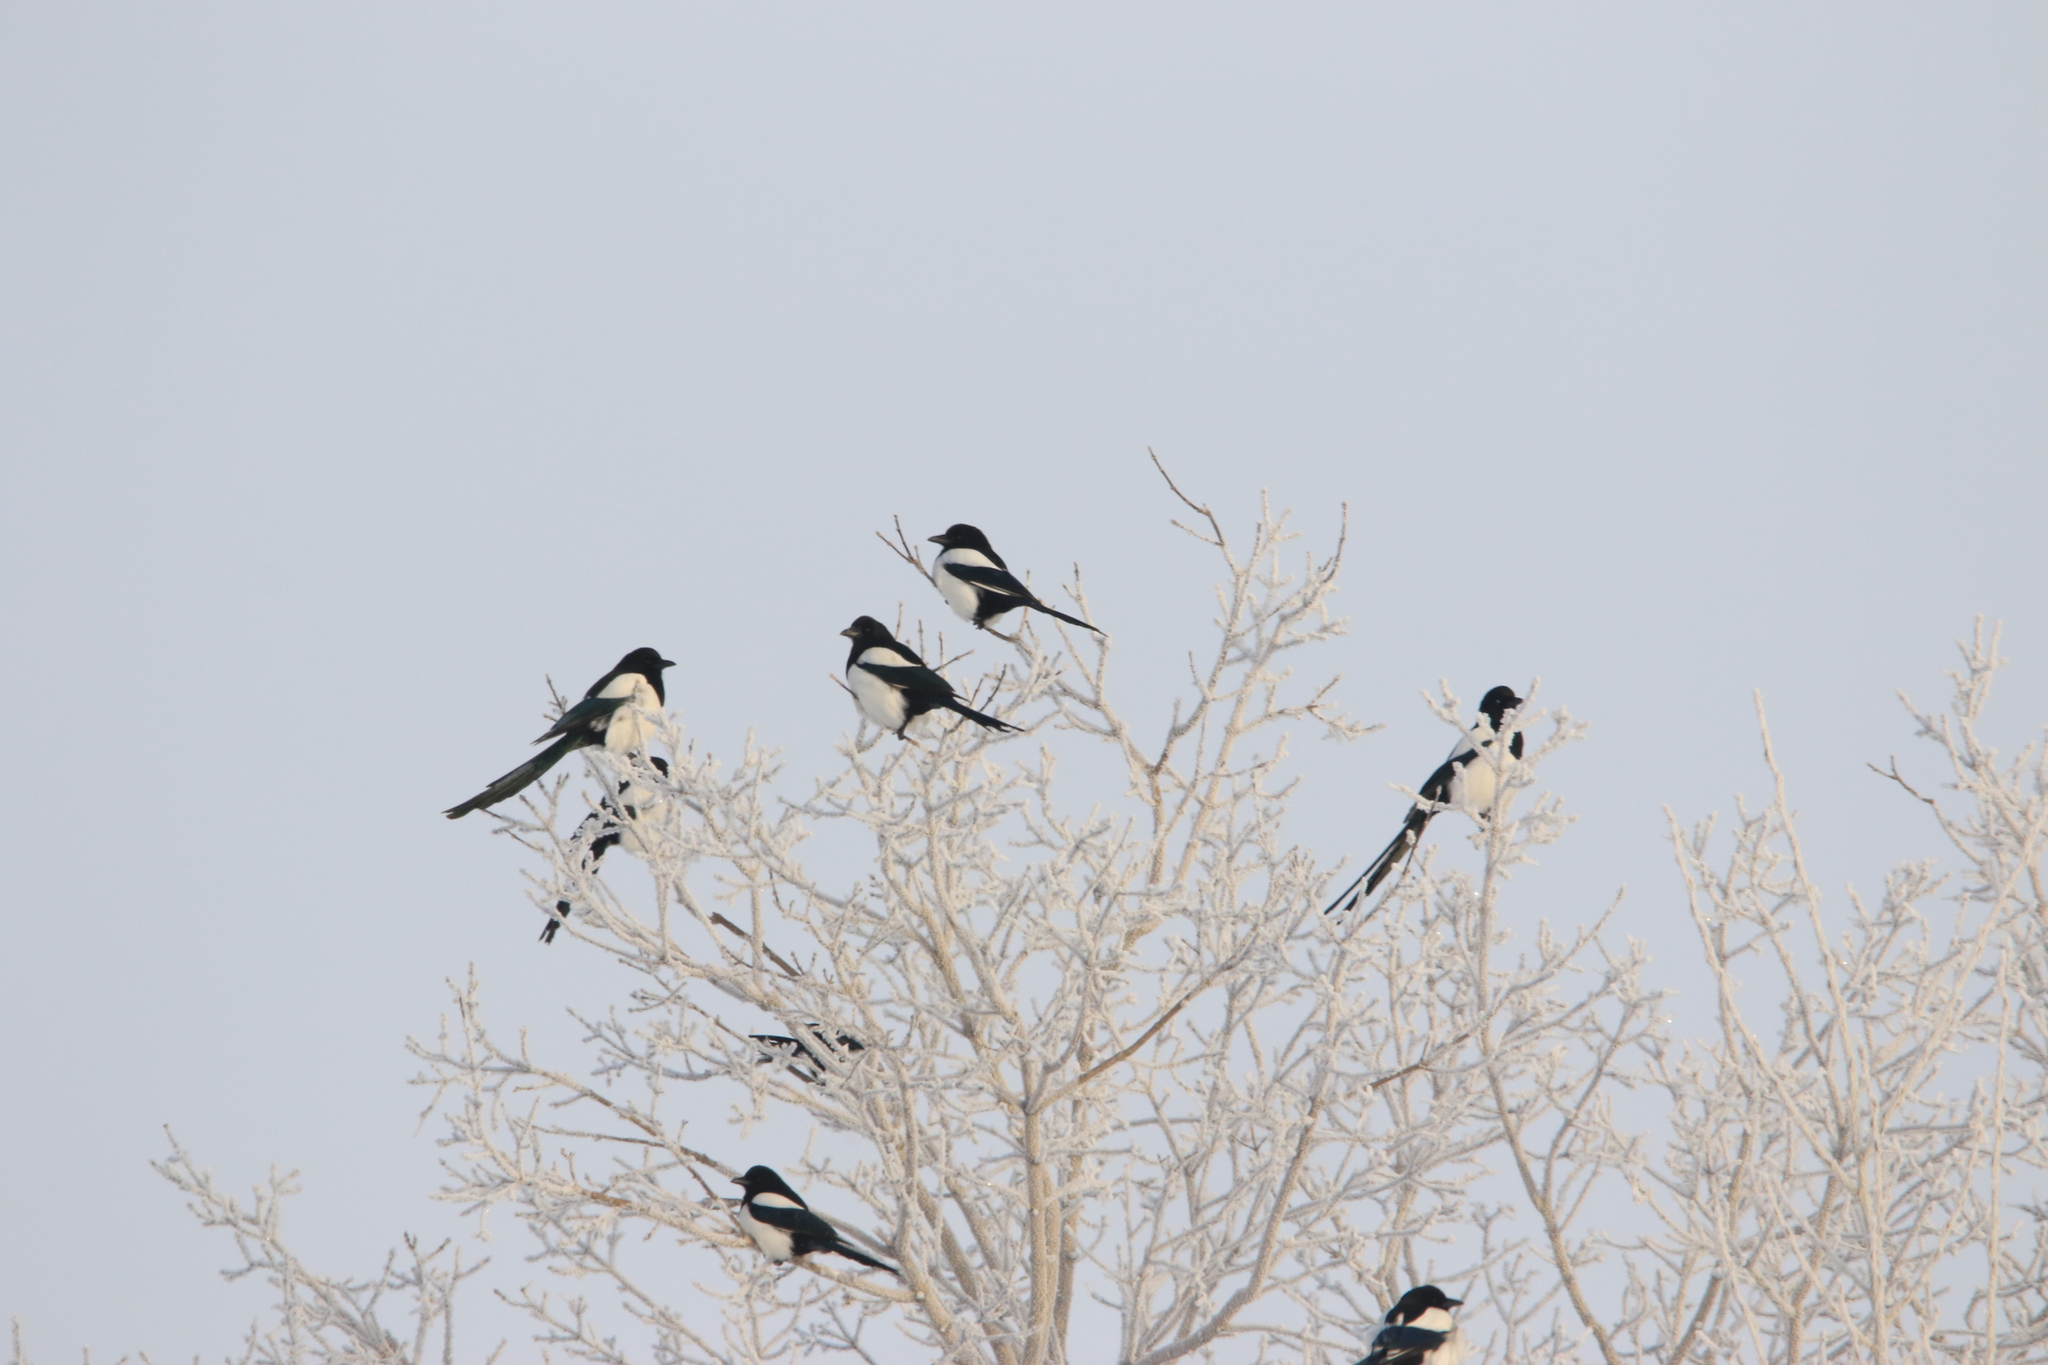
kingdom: Animalia
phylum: Chordata
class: Aves
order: Passeriformes
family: Corvidae
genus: Pica
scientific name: Pica pica
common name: Eurasian magpie
